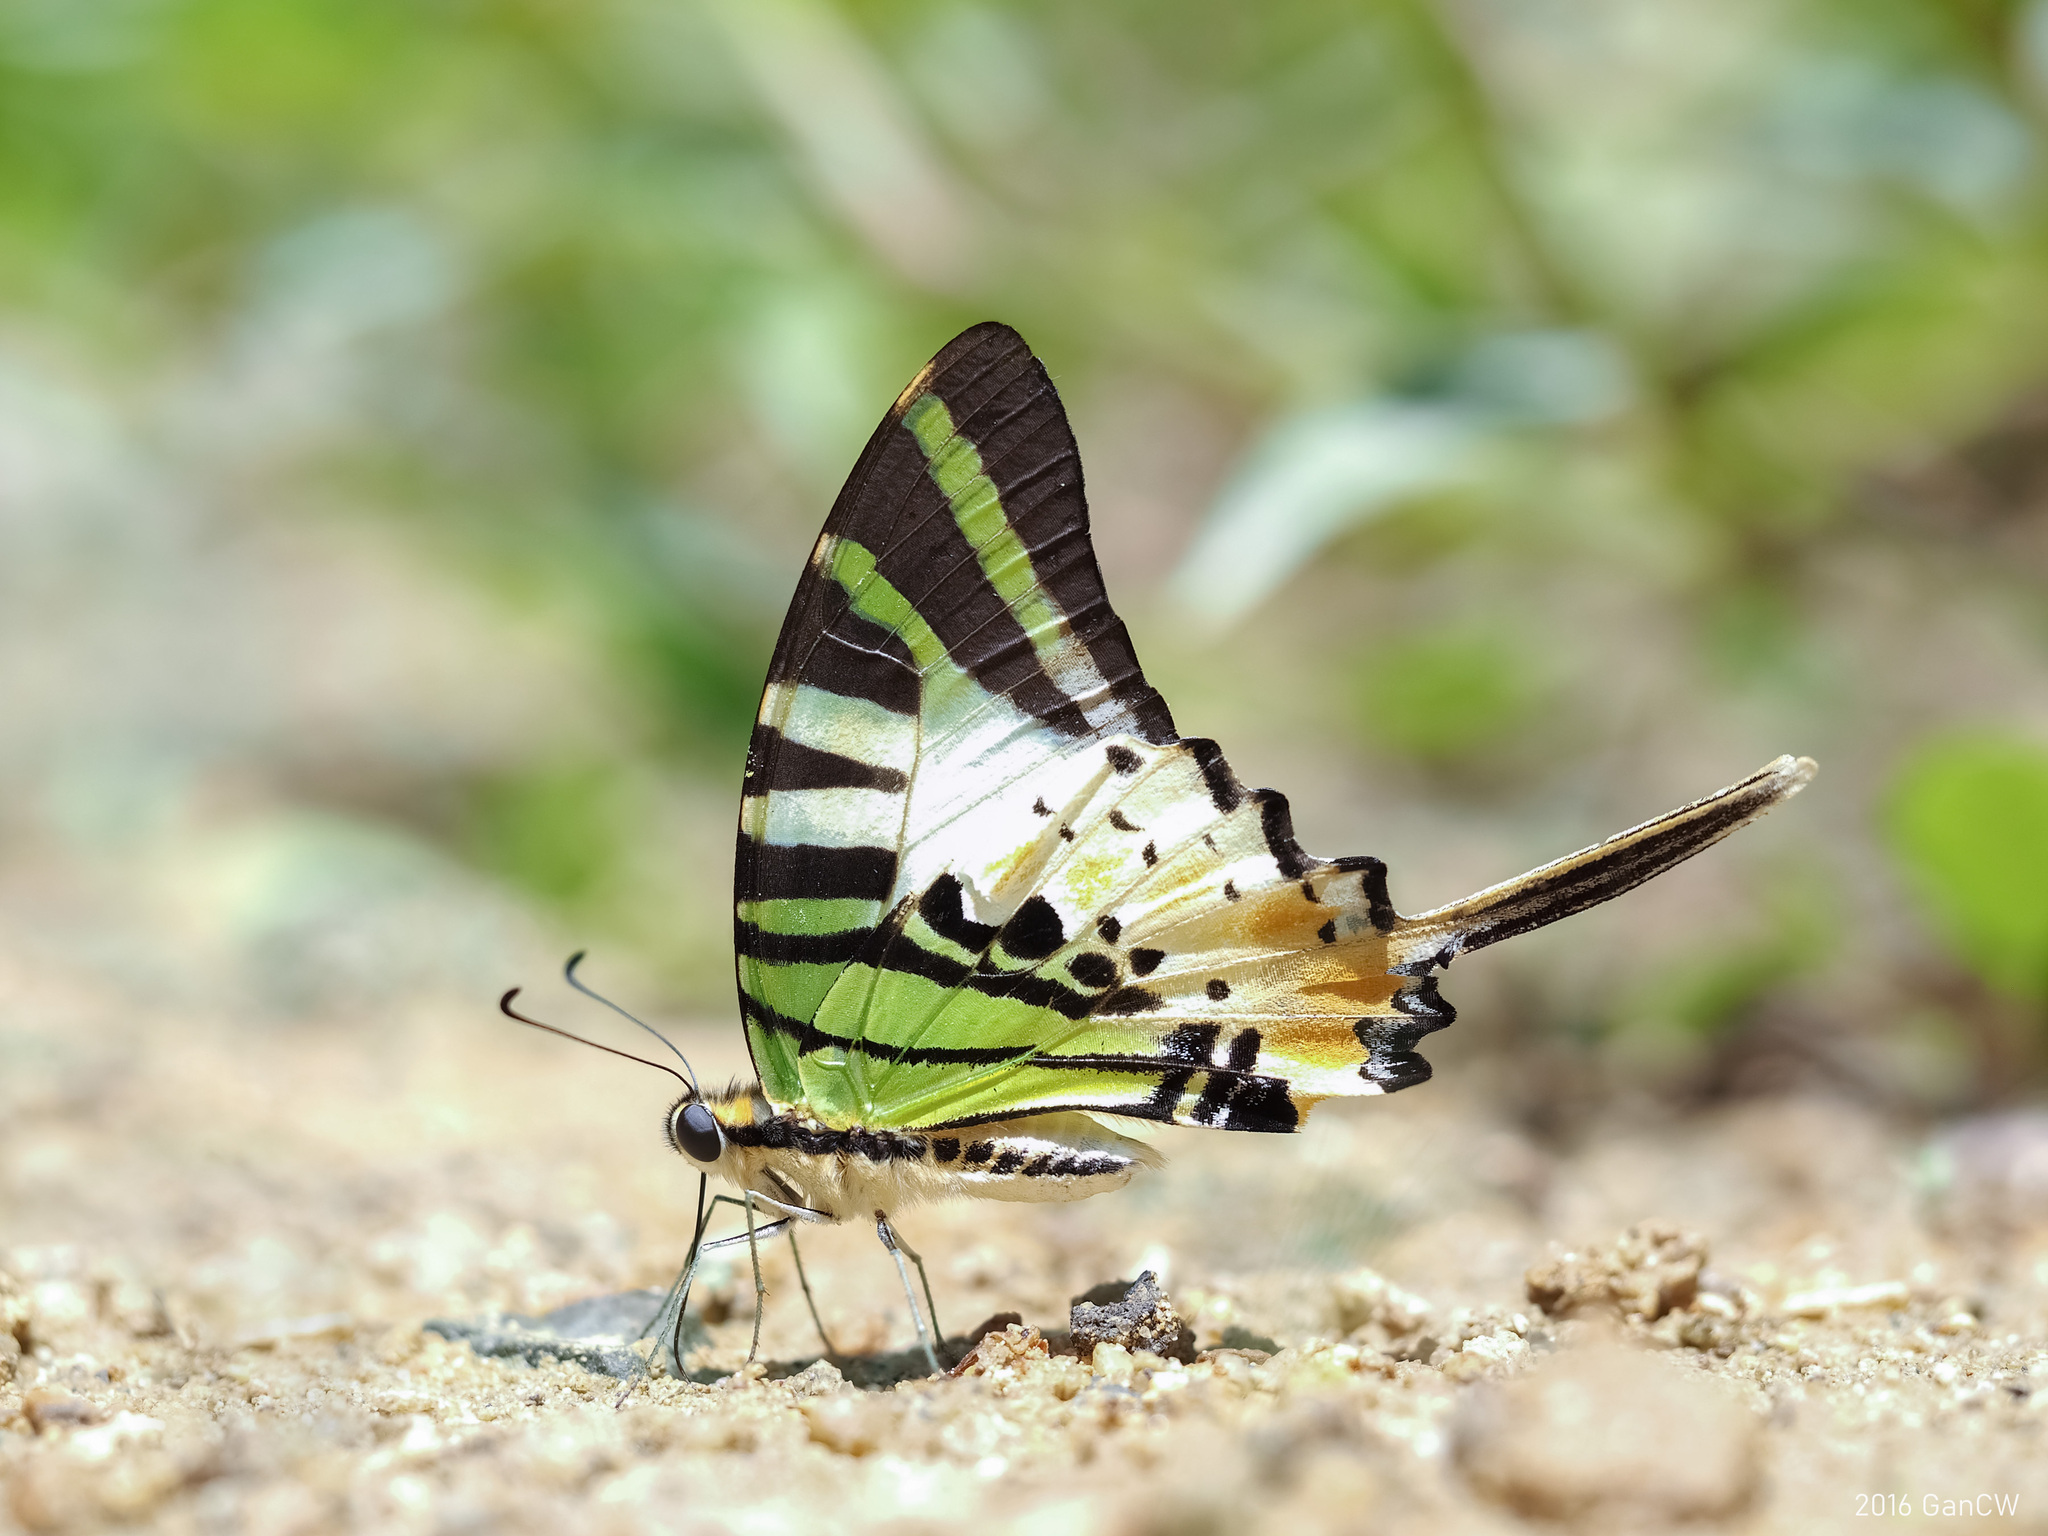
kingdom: Animalia
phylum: Arthropoda
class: Insecta
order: Lepidoptera
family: Papilionidae
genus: Graphium
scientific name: Graphium antiphates
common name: Fivebar swordtail
